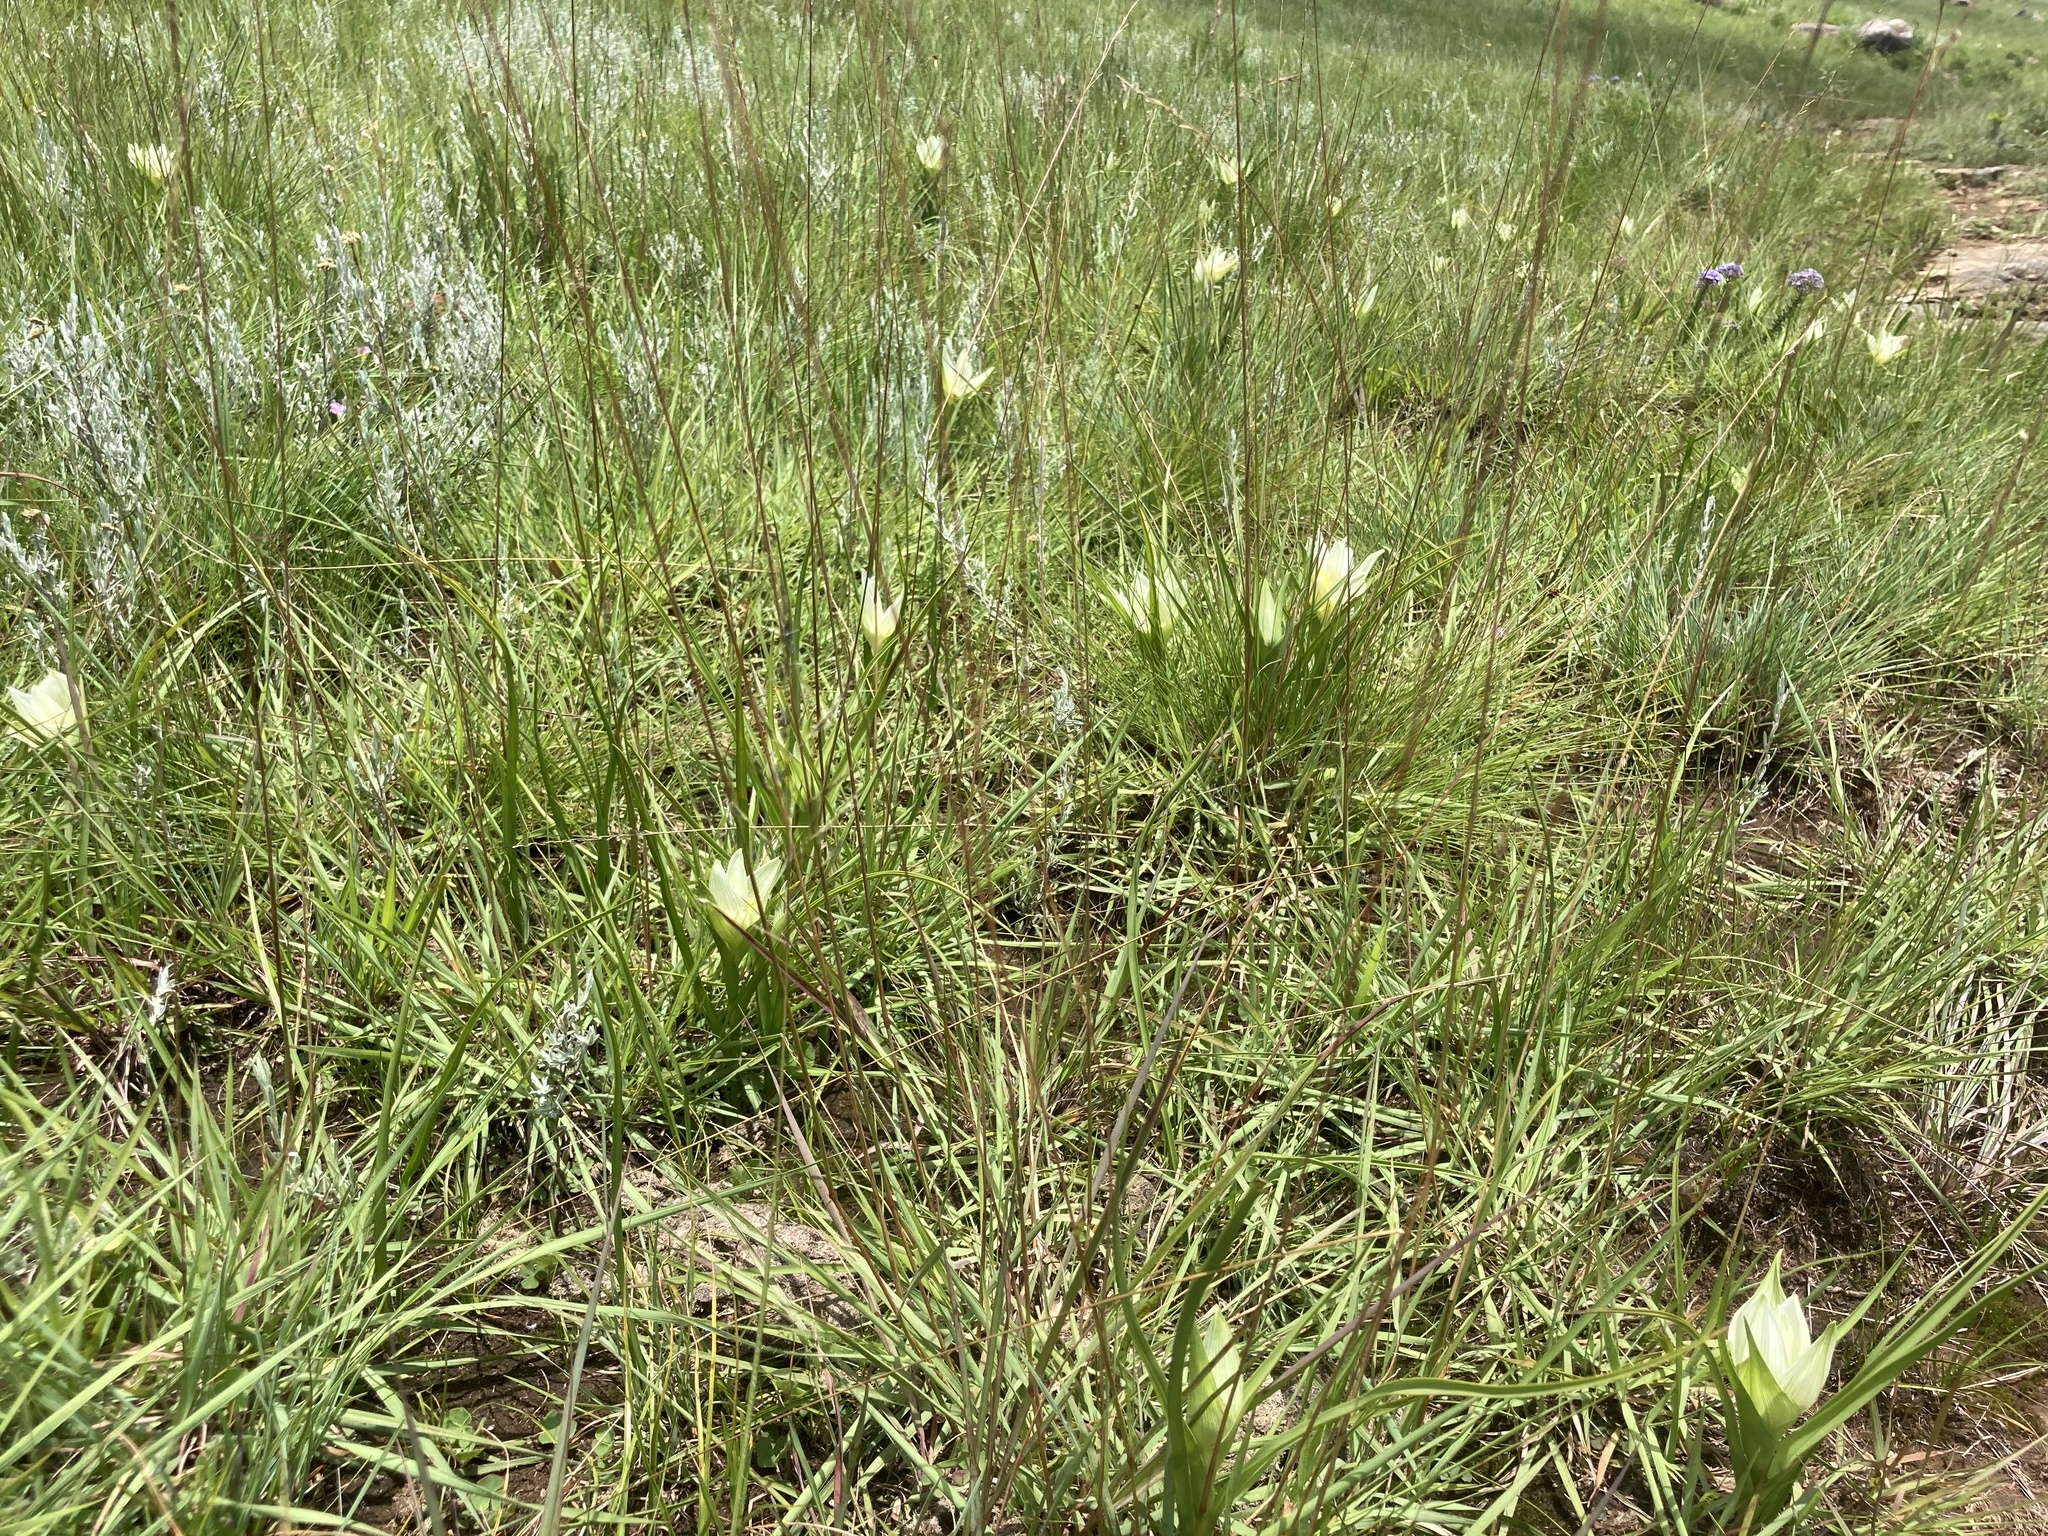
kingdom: Plantae
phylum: Tracheophyta
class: Liliopsida
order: Liliales
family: Colchicaceae
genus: Colchicum
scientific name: Colchicum striatum
